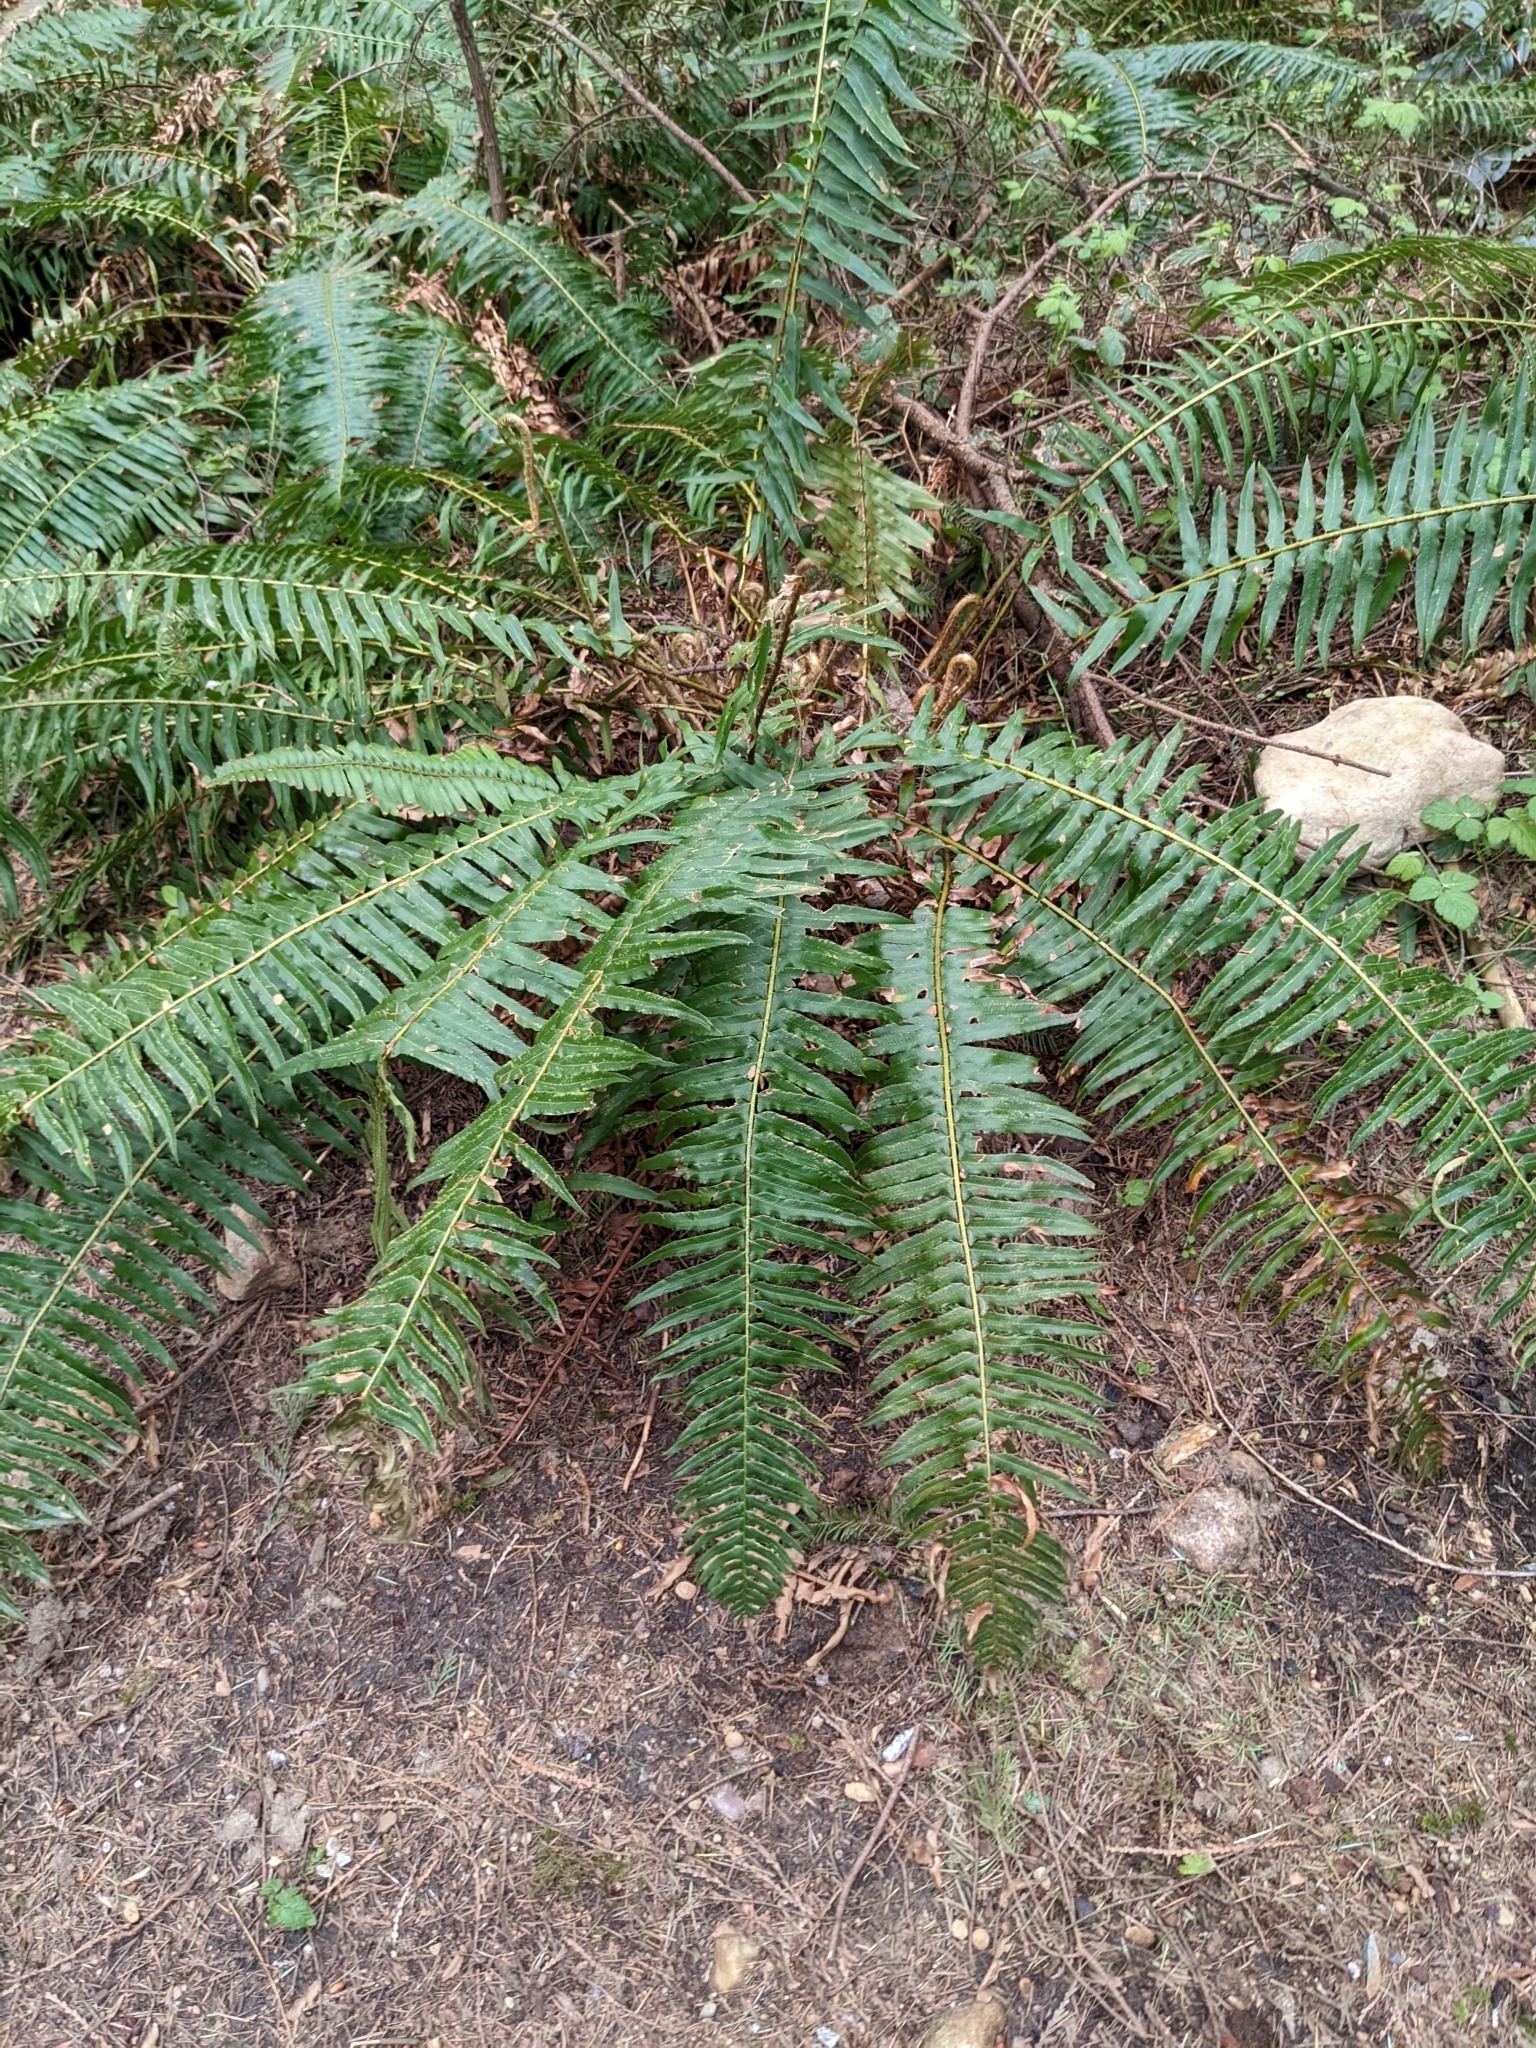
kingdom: Plantae
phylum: Tracheophyta
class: Polypodiopsida
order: Polypodiales
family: Dryopteridaceae
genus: Polystichum
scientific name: Polystichum munitum
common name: Western sword-fern
